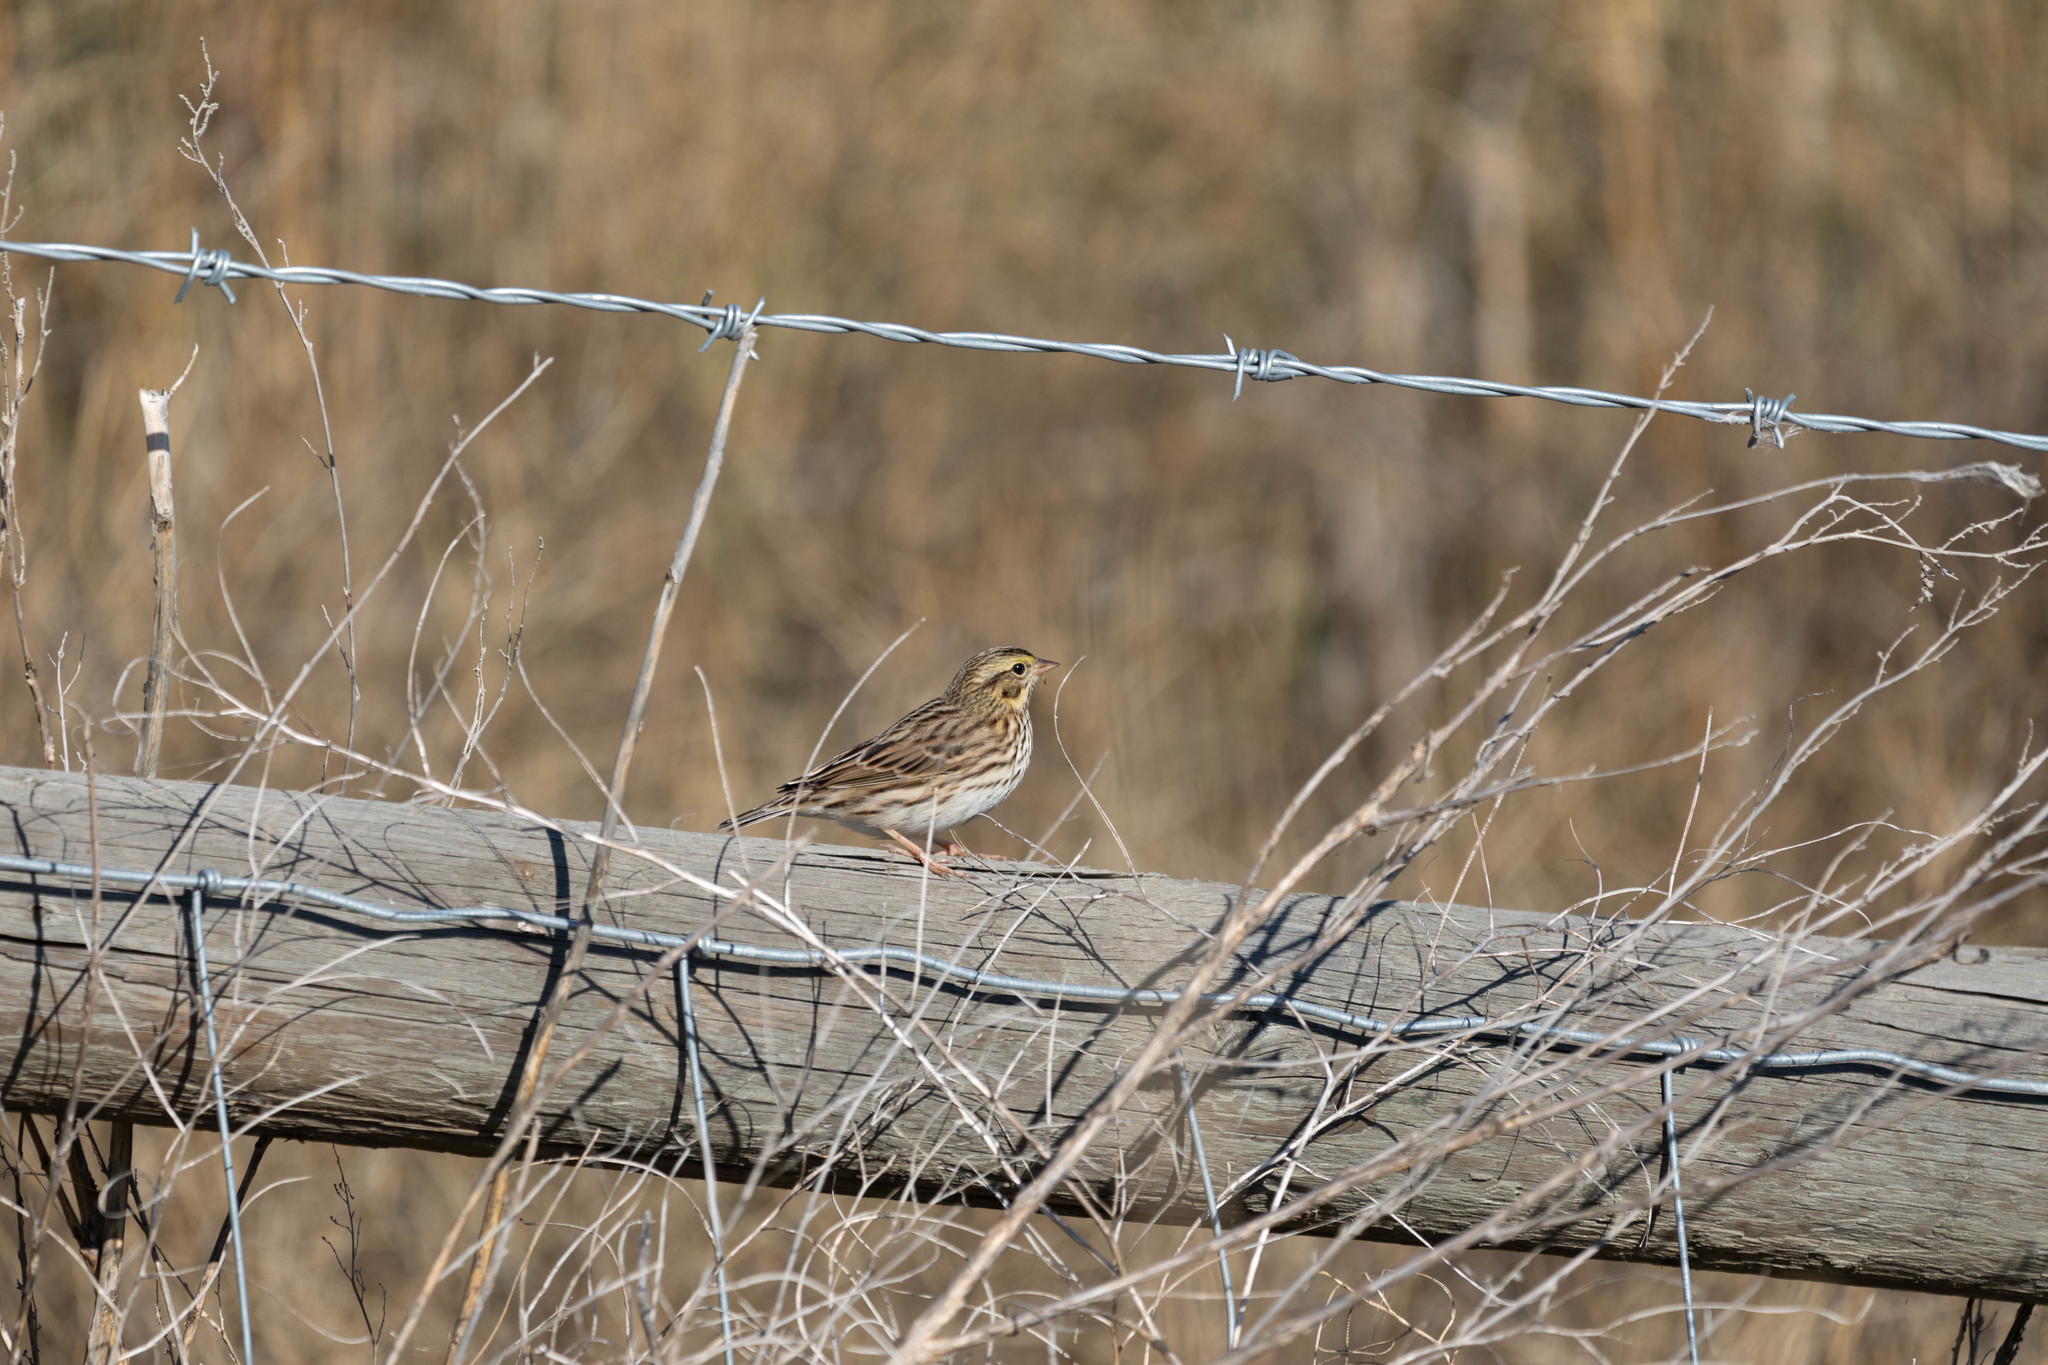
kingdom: Animalia
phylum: Chordata
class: Aves
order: Passeriformes
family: Passerellidae
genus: Passerculus
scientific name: Passerculus sandwichensis
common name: Savannah sparrow
